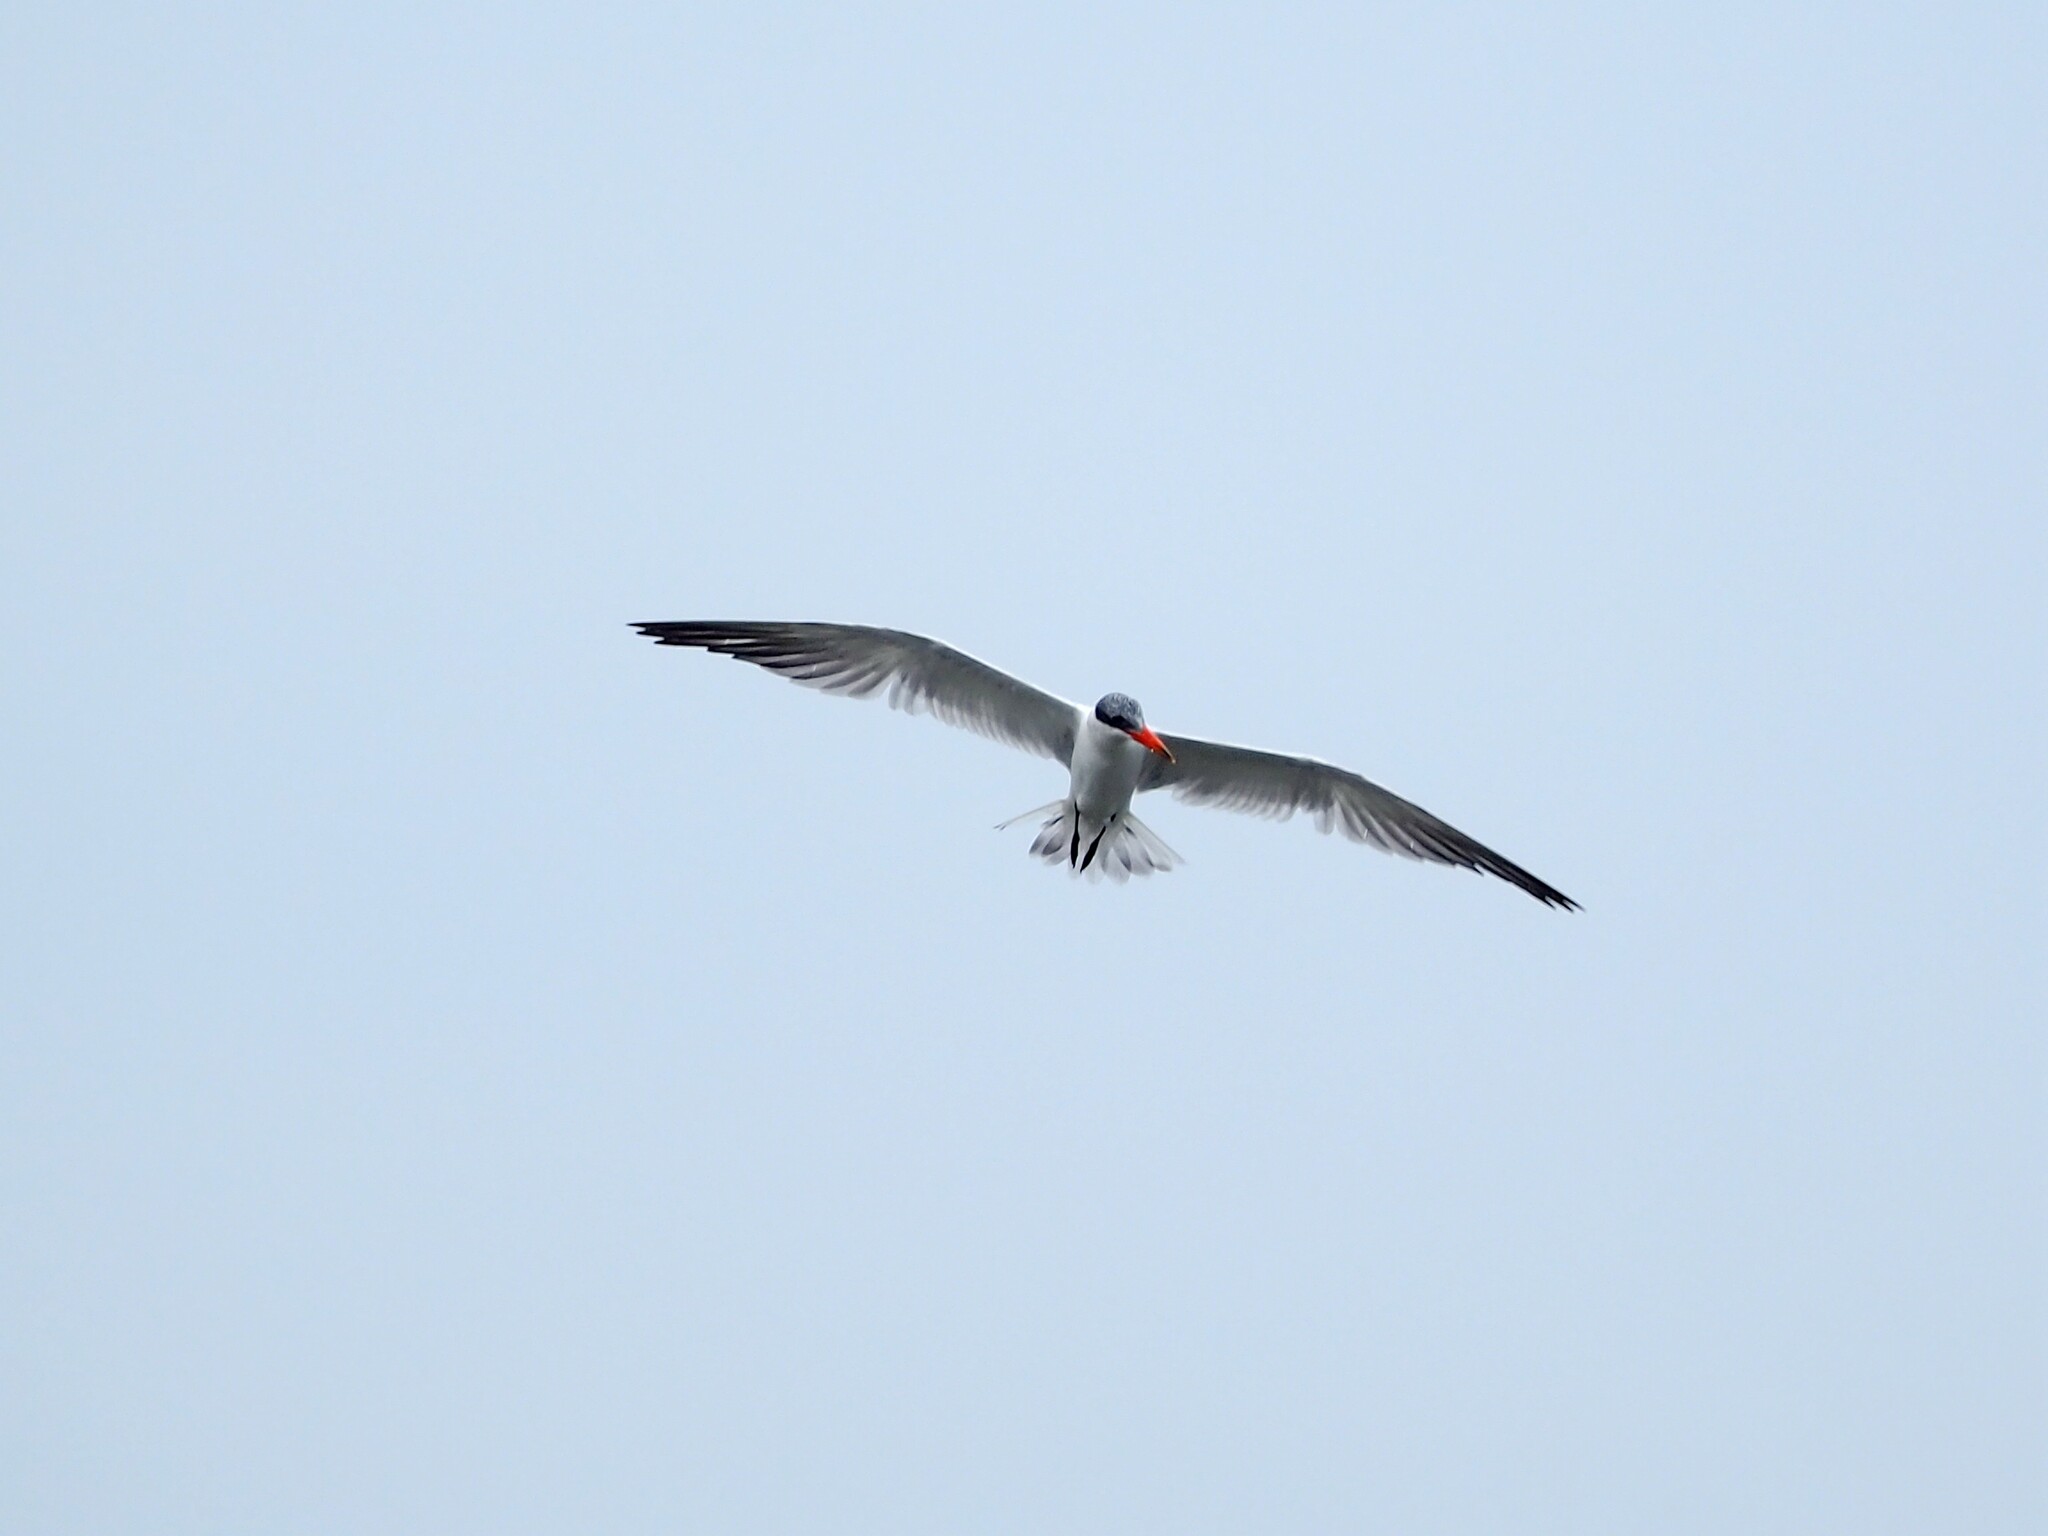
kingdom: Animalia
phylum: Chordata
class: Aves
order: Charadriiformes
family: Laridae
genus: Hydroprogne
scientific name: Hydroprogne caspia
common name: Caspian tern
